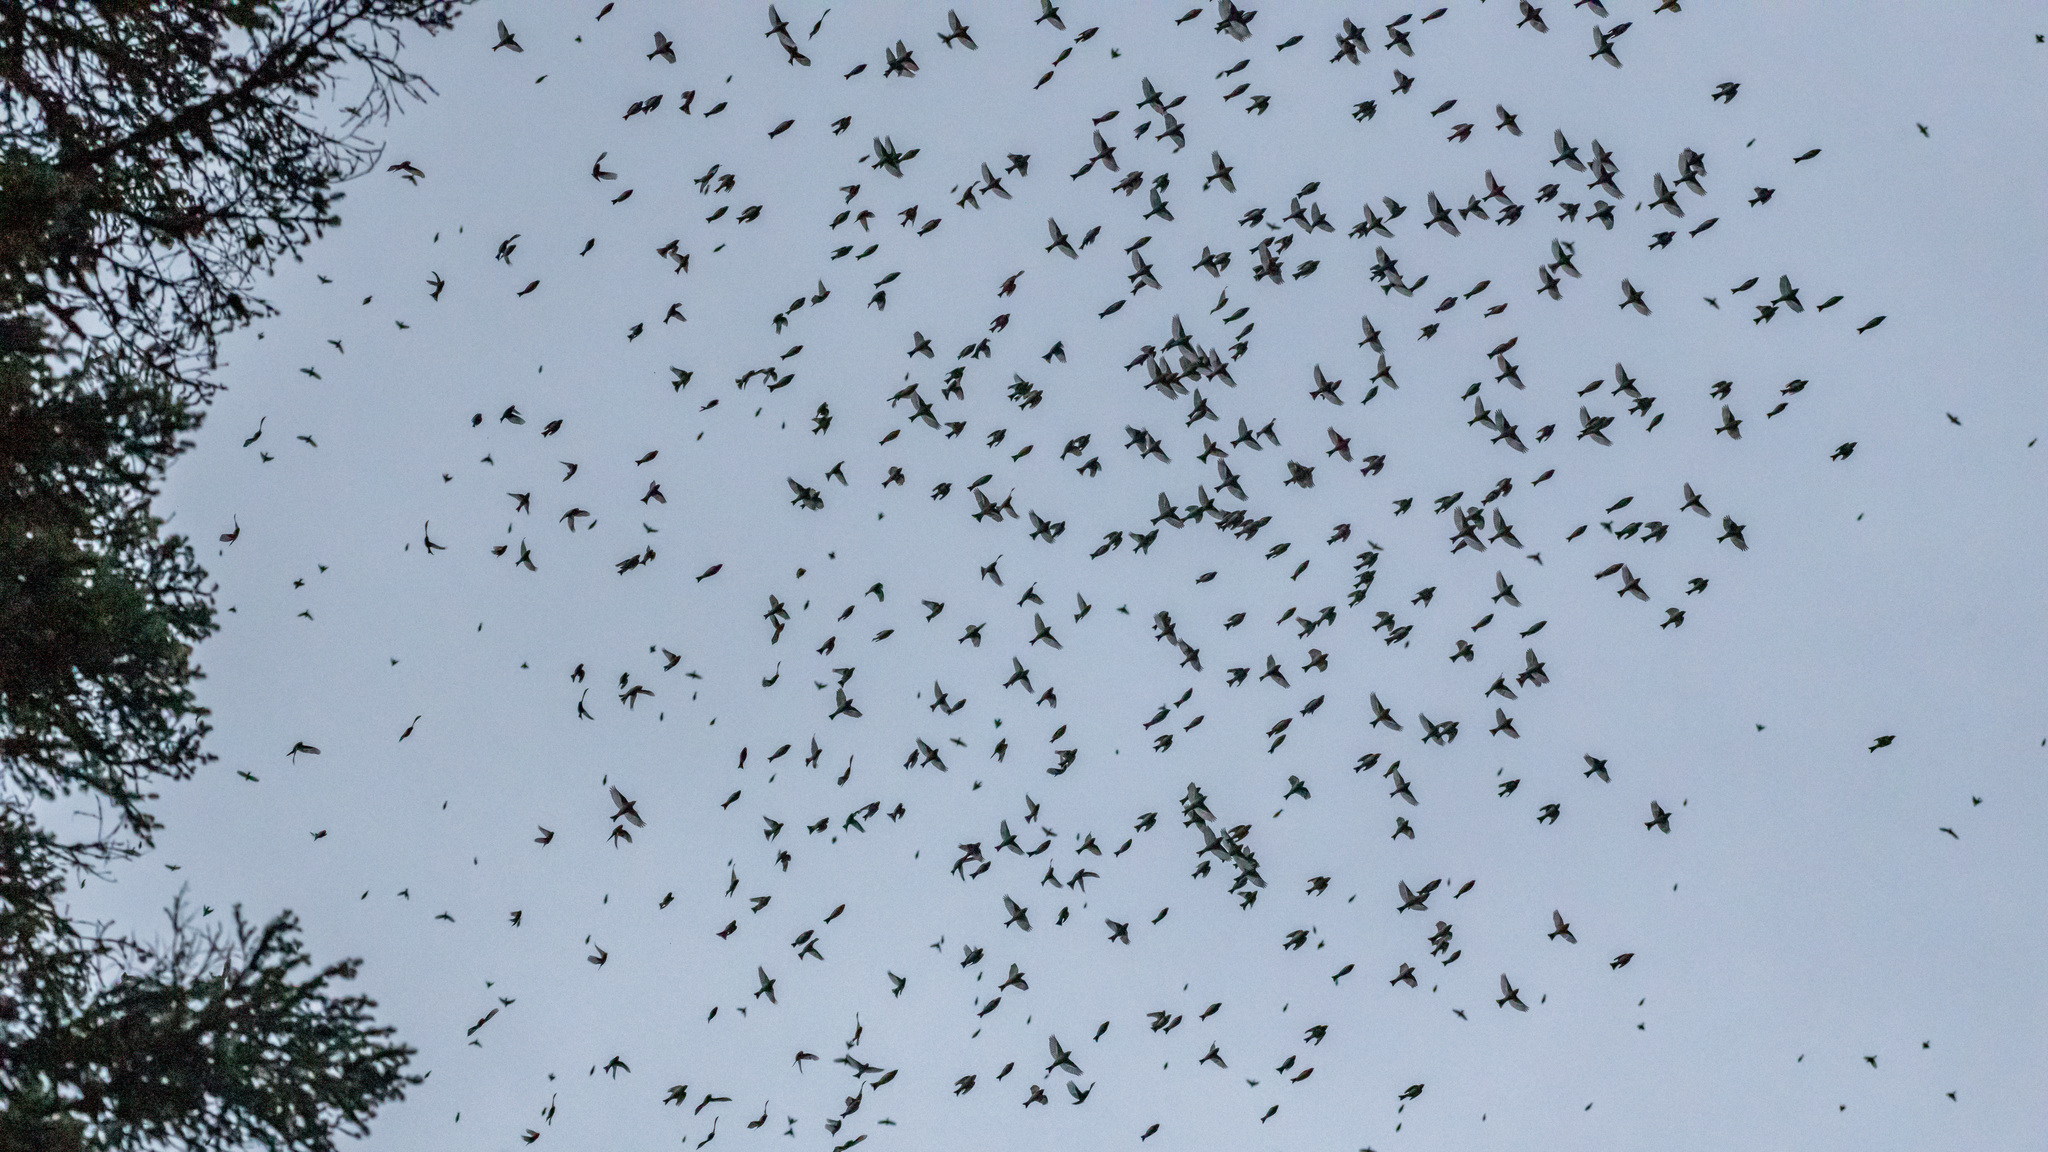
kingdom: Animalia
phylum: Chordata
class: Aves
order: Passeriformes
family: Fringillidae
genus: Fringilla
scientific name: Fringilla montifringilla
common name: Brambling
